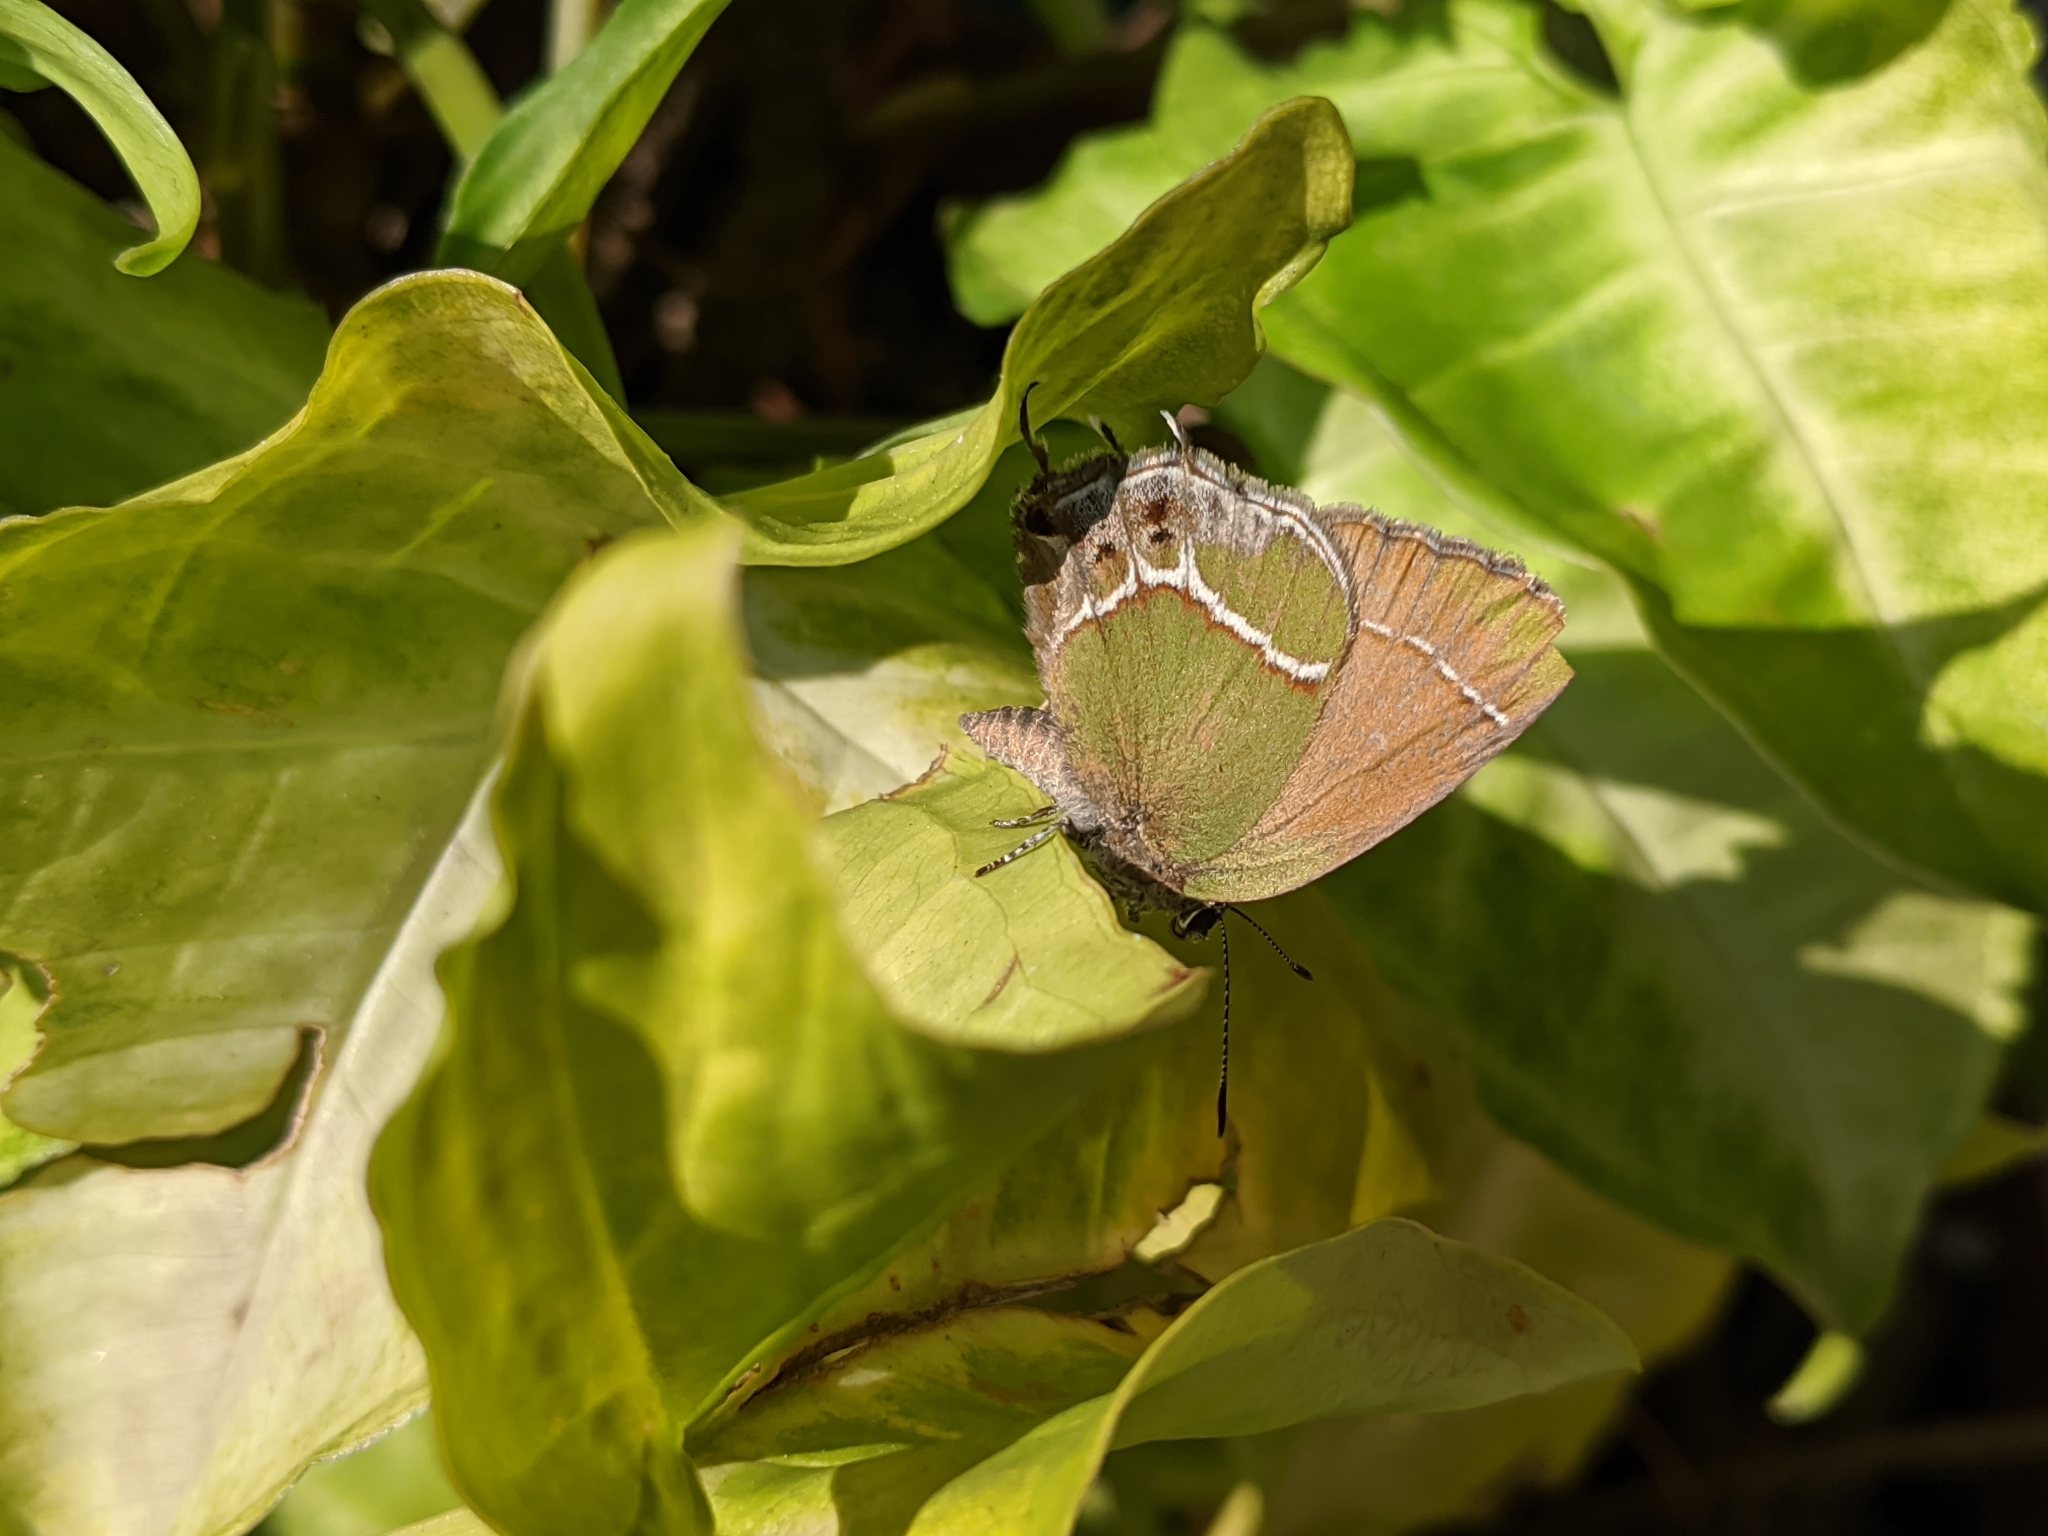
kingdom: Animalia
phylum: Arthropoda
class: Insecta
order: Lepidoptera
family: Lycaenidae
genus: Xamia
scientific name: Xamia xami
